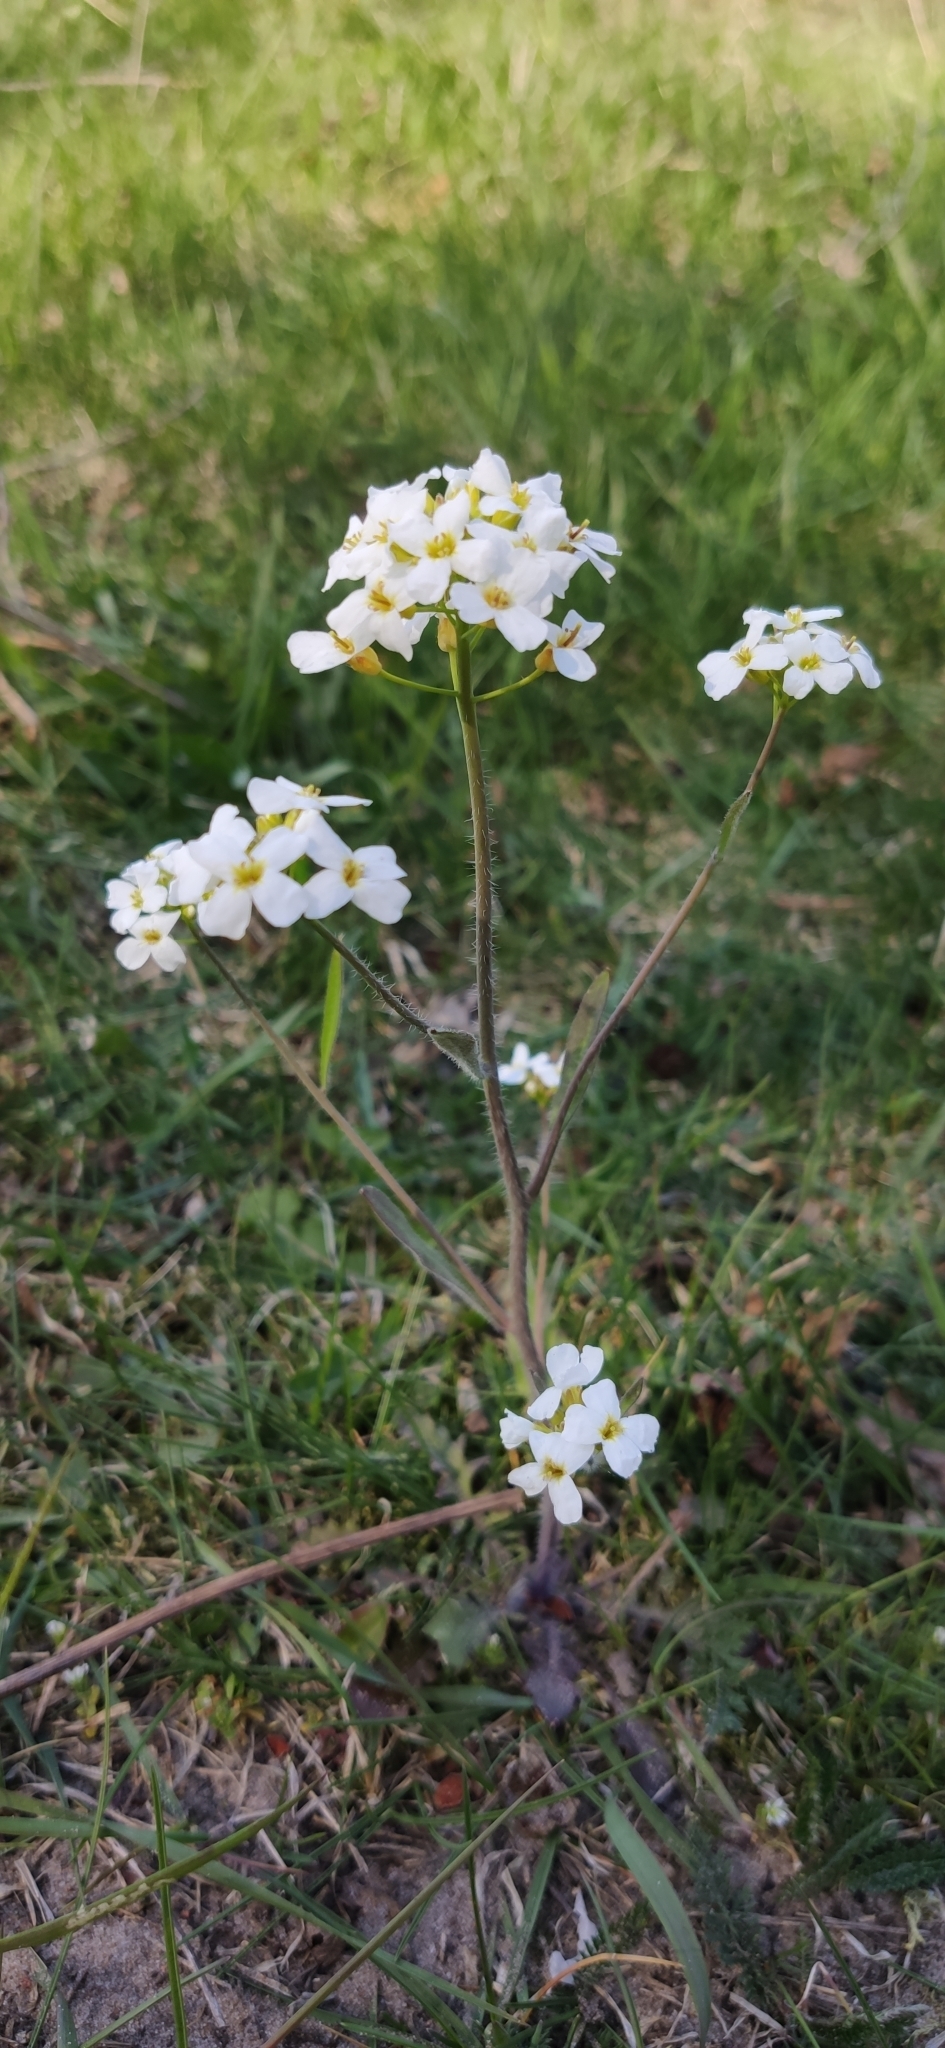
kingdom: Plantae
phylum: Tracheophyta
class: Magnoliopsida
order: Brassicales
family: Brassicaceae
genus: Arabidopsis
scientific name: Arabidopsis arenosa
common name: Sand rock-cress
